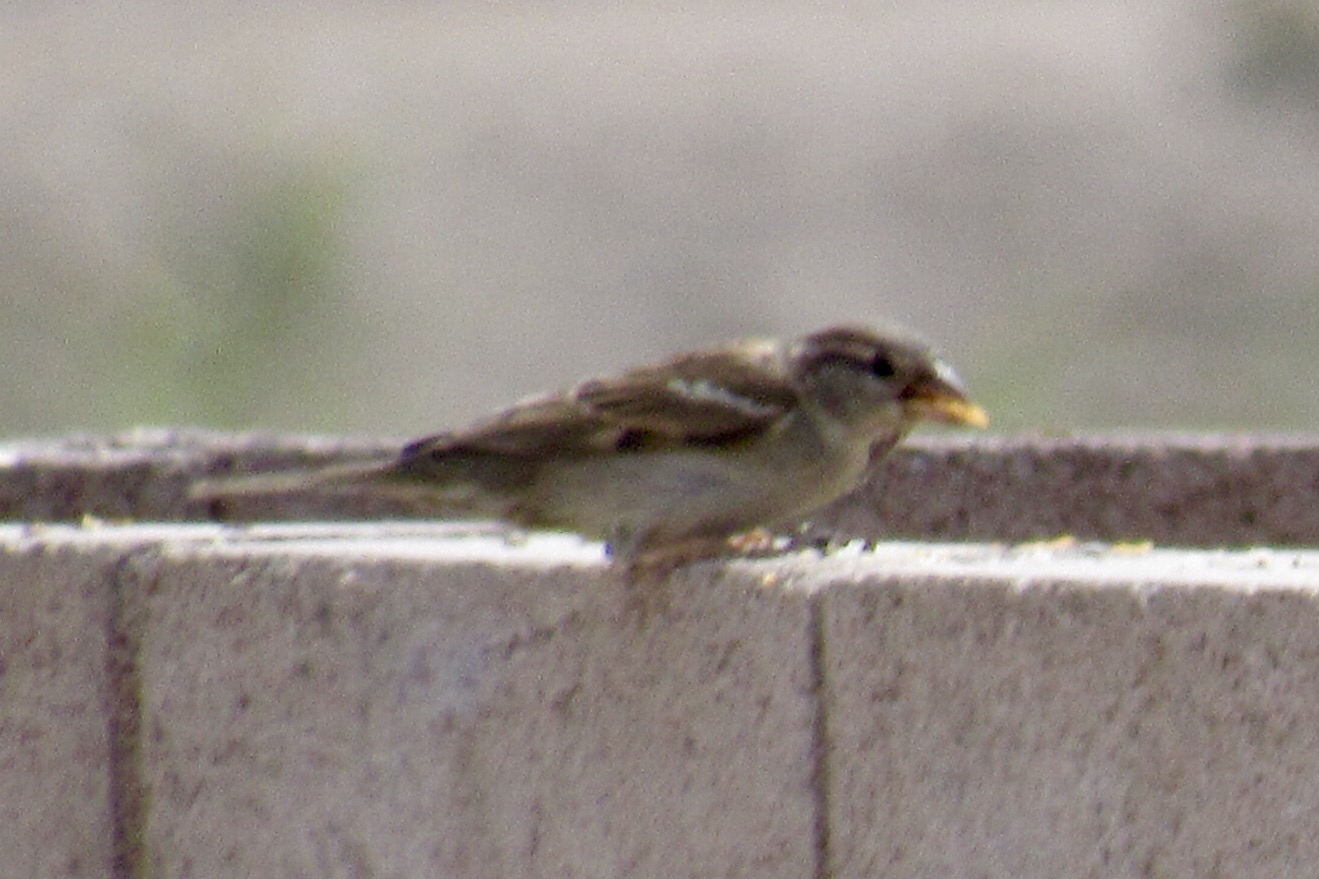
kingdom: Animalia
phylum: Chordata
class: Aves
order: Passeriformes
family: Passeridae
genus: Passer
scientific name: Passer domesticus
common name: House sparrow
